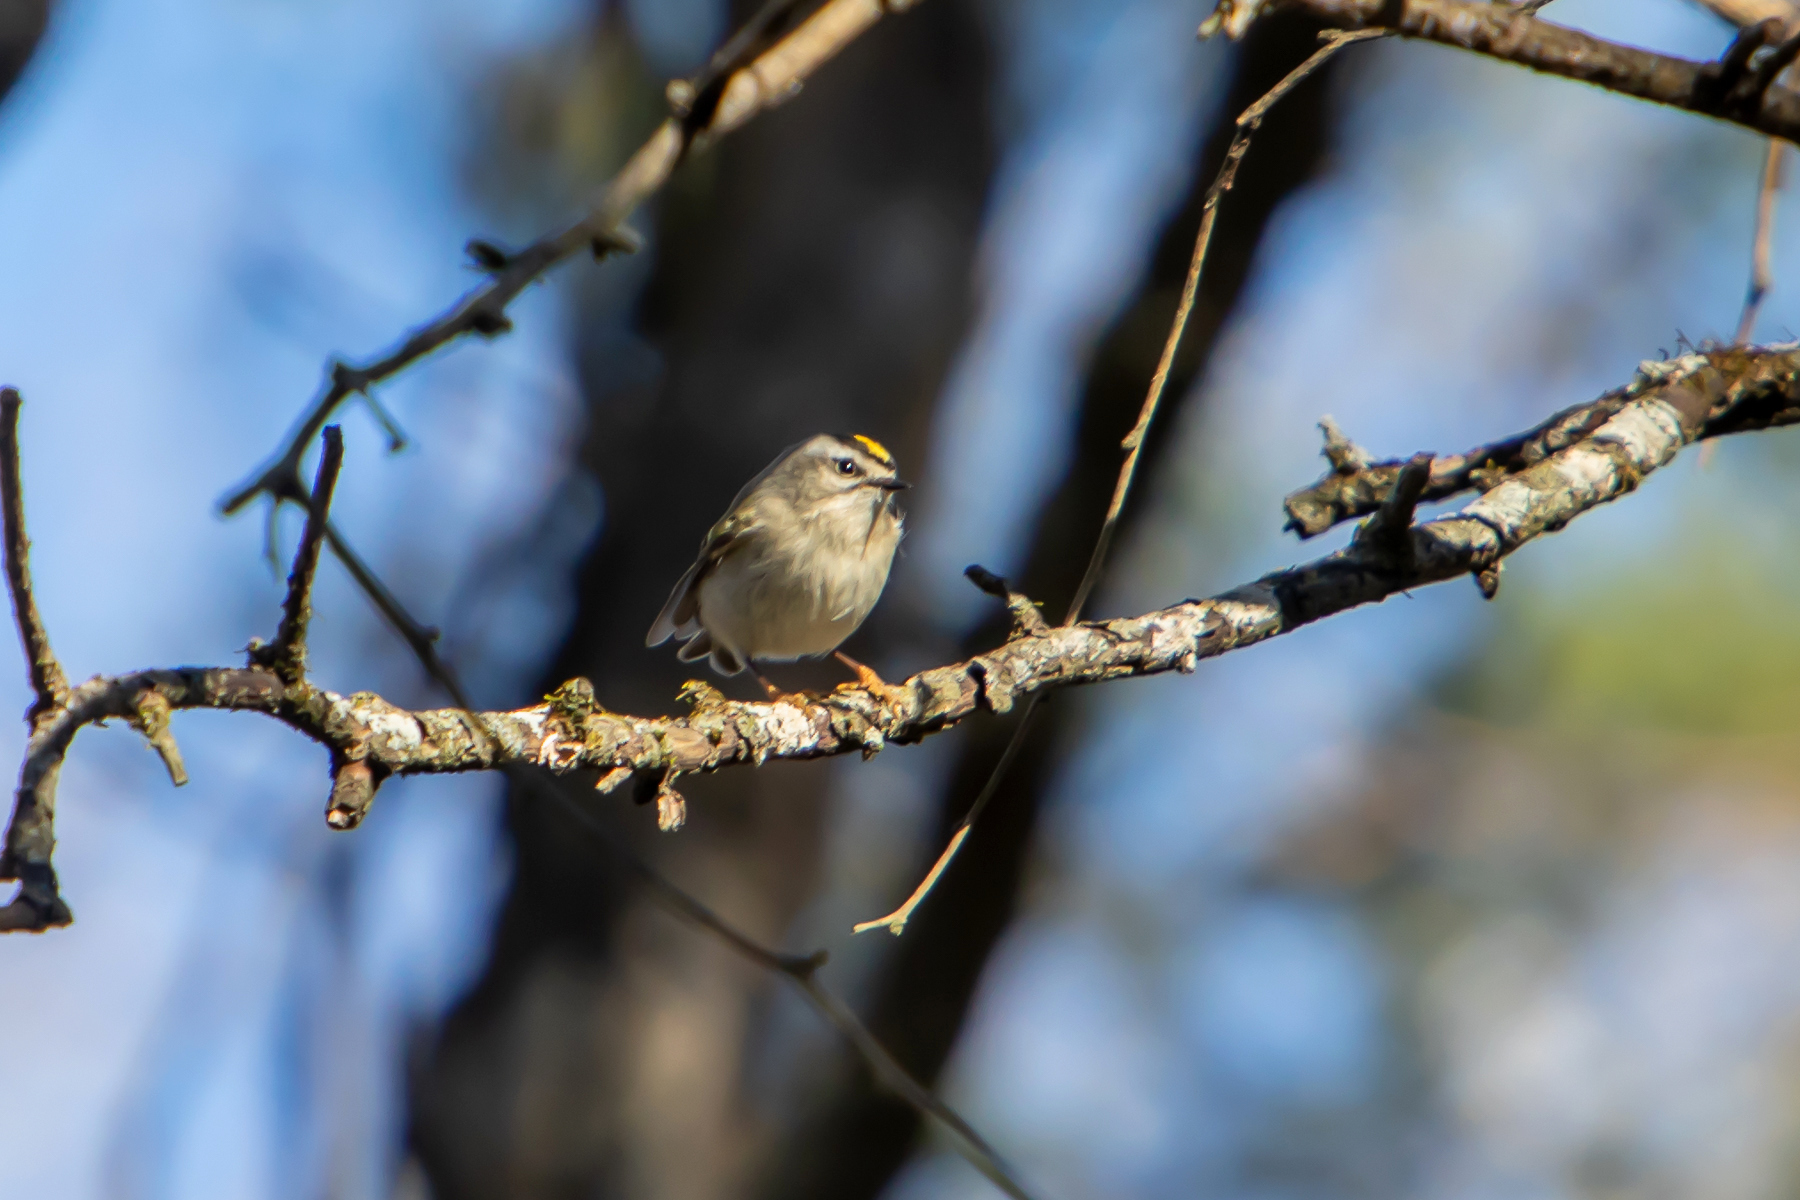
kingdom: Animalia
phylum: Chordata
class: Aves
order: Passeriformes
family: Regulidae
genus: Regulus
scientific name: Regulus satrapa
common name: Golden-crowned kinglet
